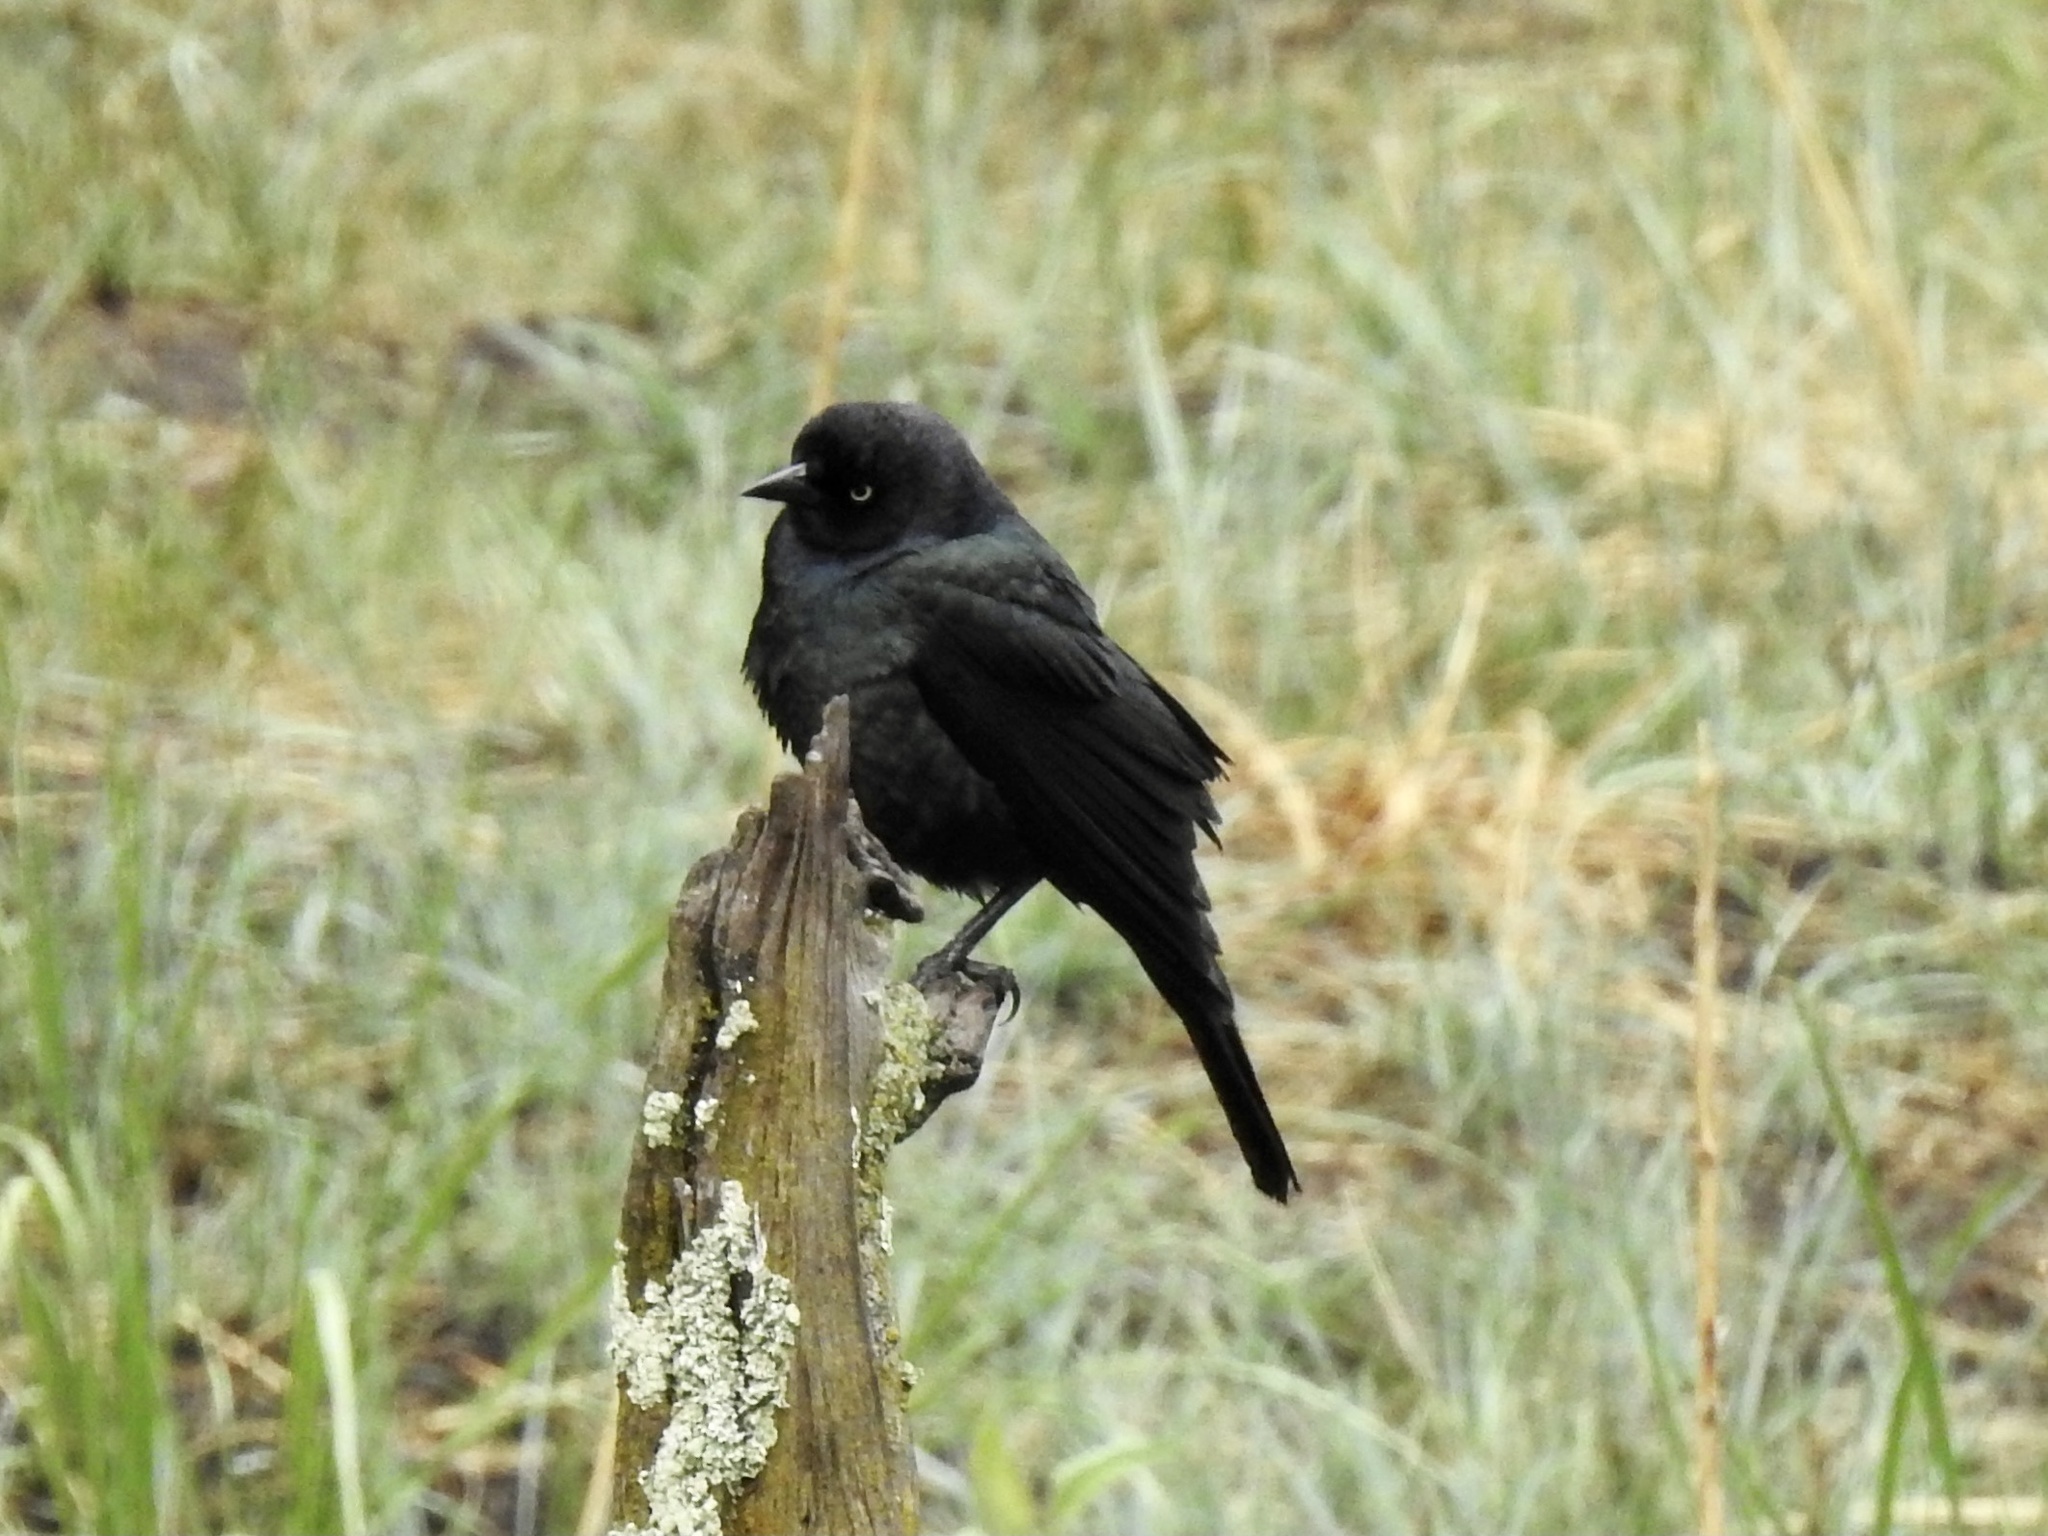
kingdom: Animalia
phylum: Chordata
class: Aves
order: Passeriformes
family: Icteridae
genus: Euphagus
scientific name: Euphagus cyanocephalus
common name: Brewer's blackbird
